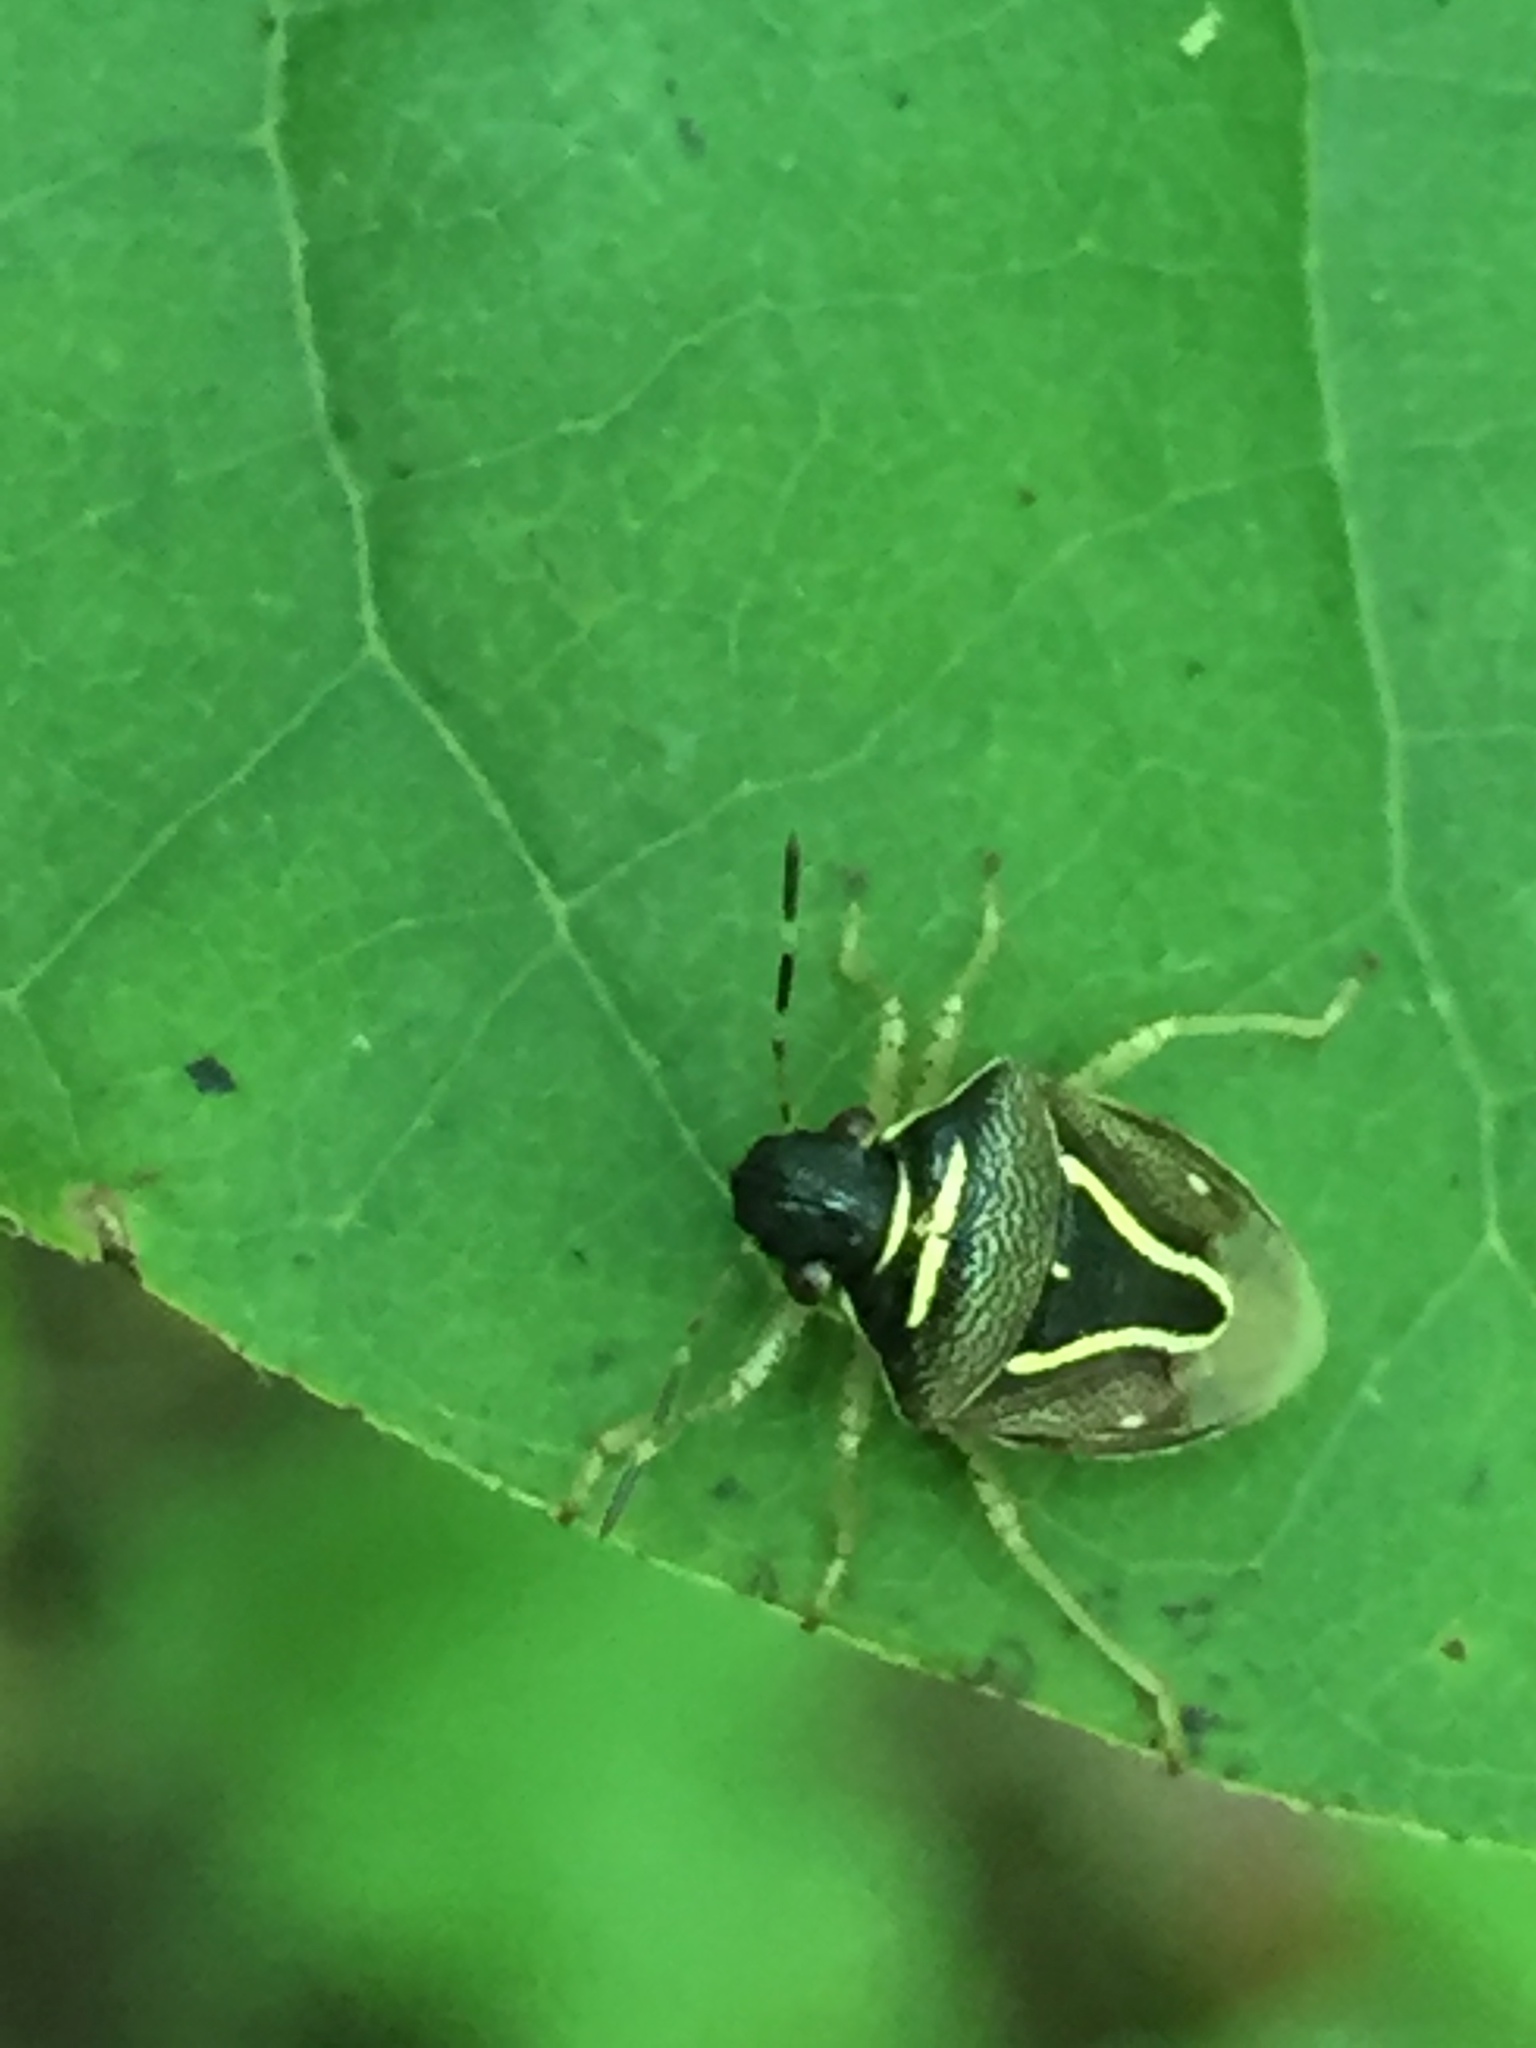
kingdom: Animalia
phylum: Arthropoda
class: Insecta
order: Hemiptera
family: Pentatomidae
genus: Mormidea
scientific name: Mormidea lugens
